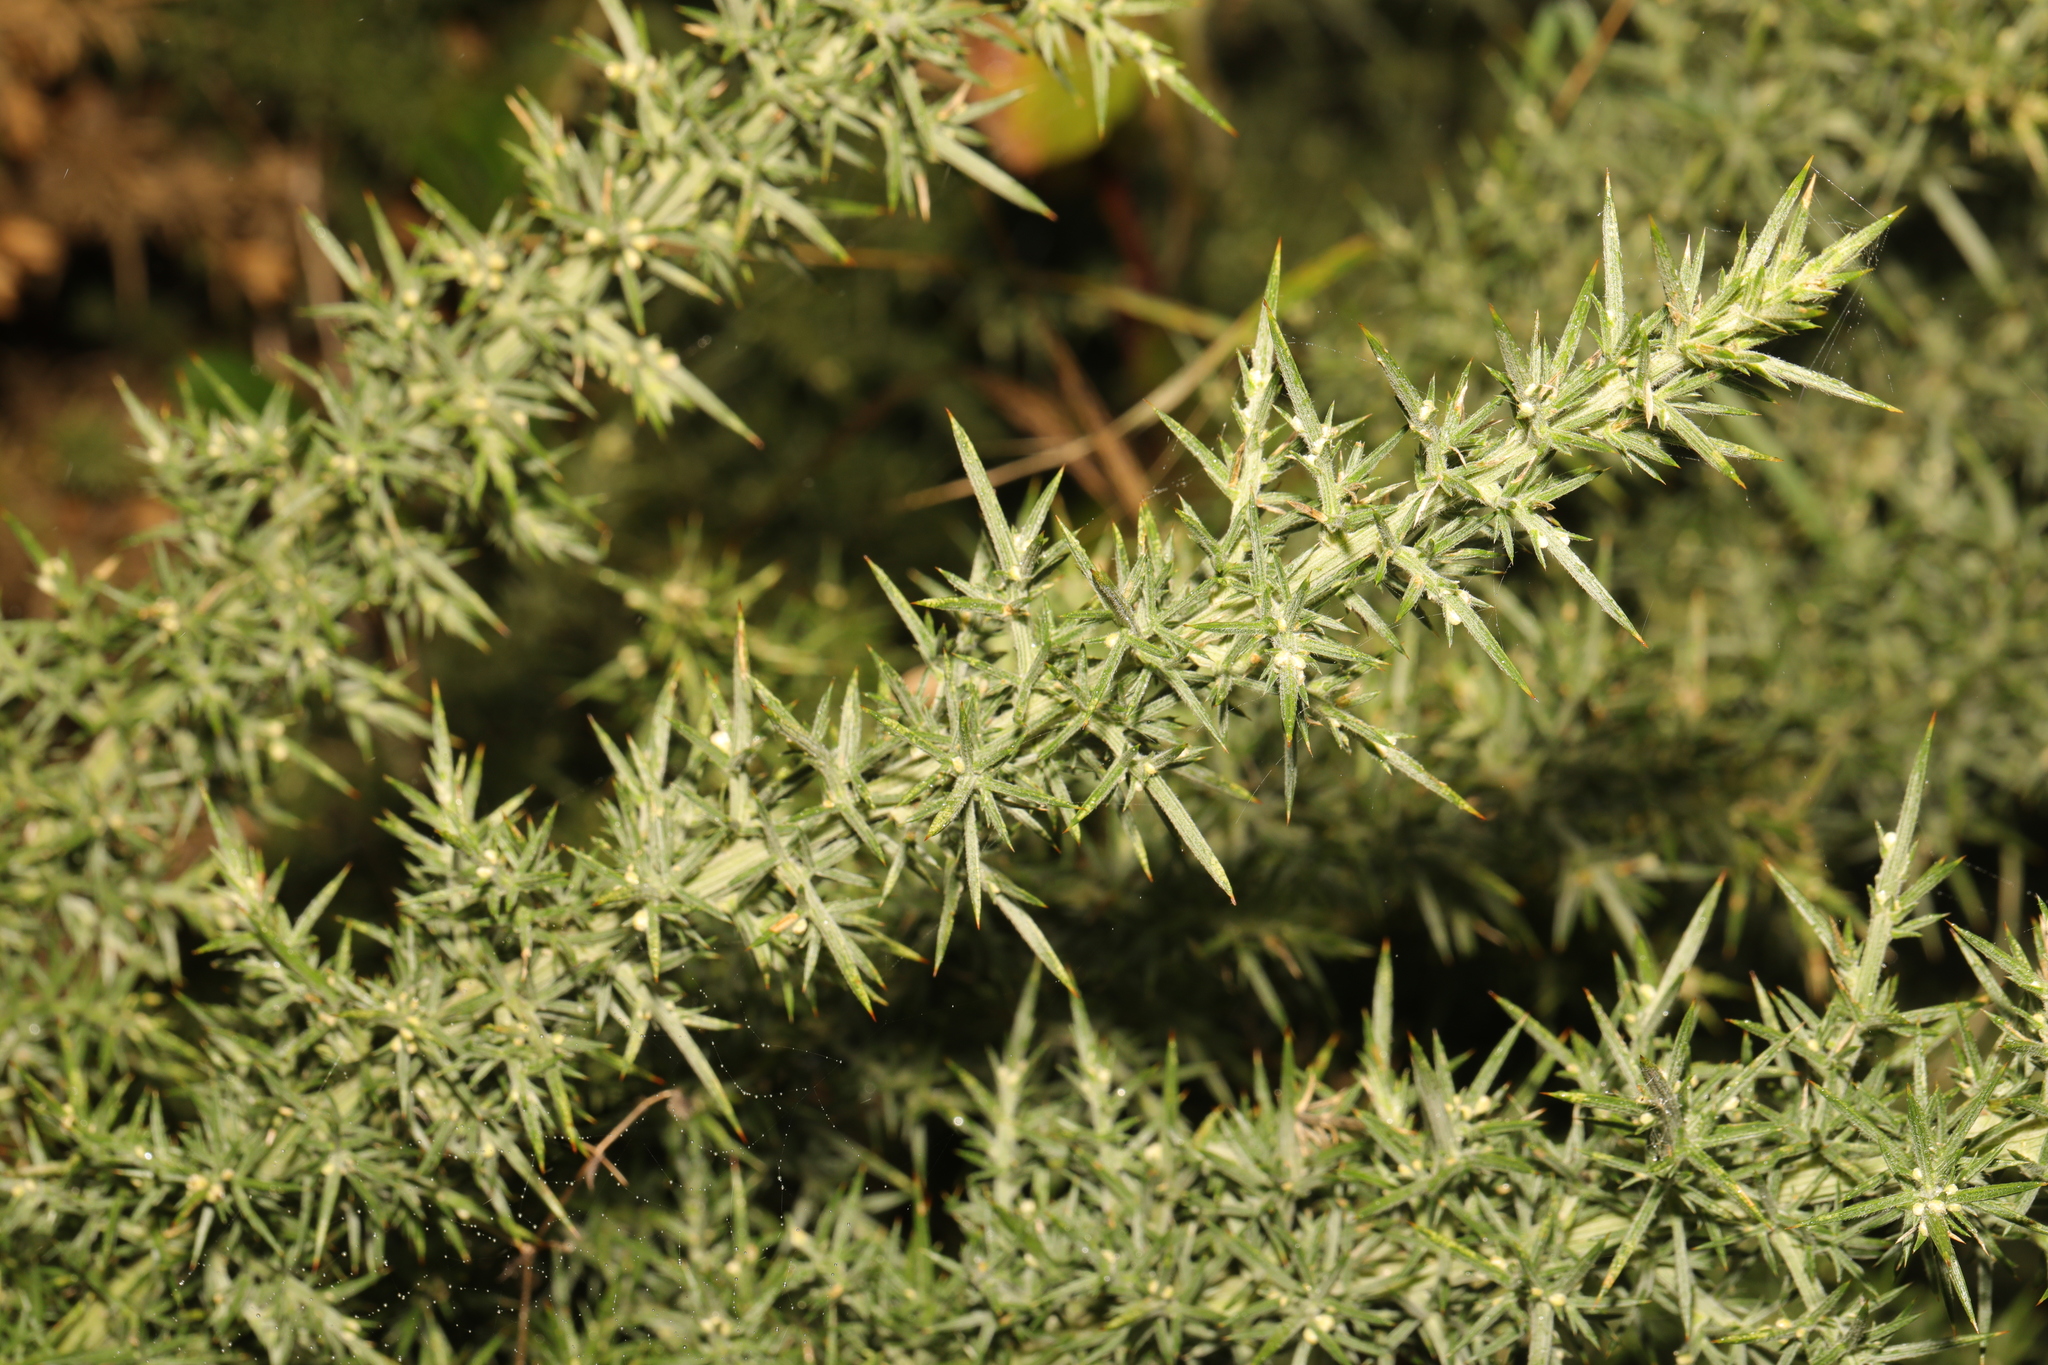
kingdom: Plantae
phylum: Tracheophyta
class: Magnoliopsida
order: Fabales
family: Fabaceae
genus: Ulex
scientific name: Ulex europaeus
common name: Common gorse
